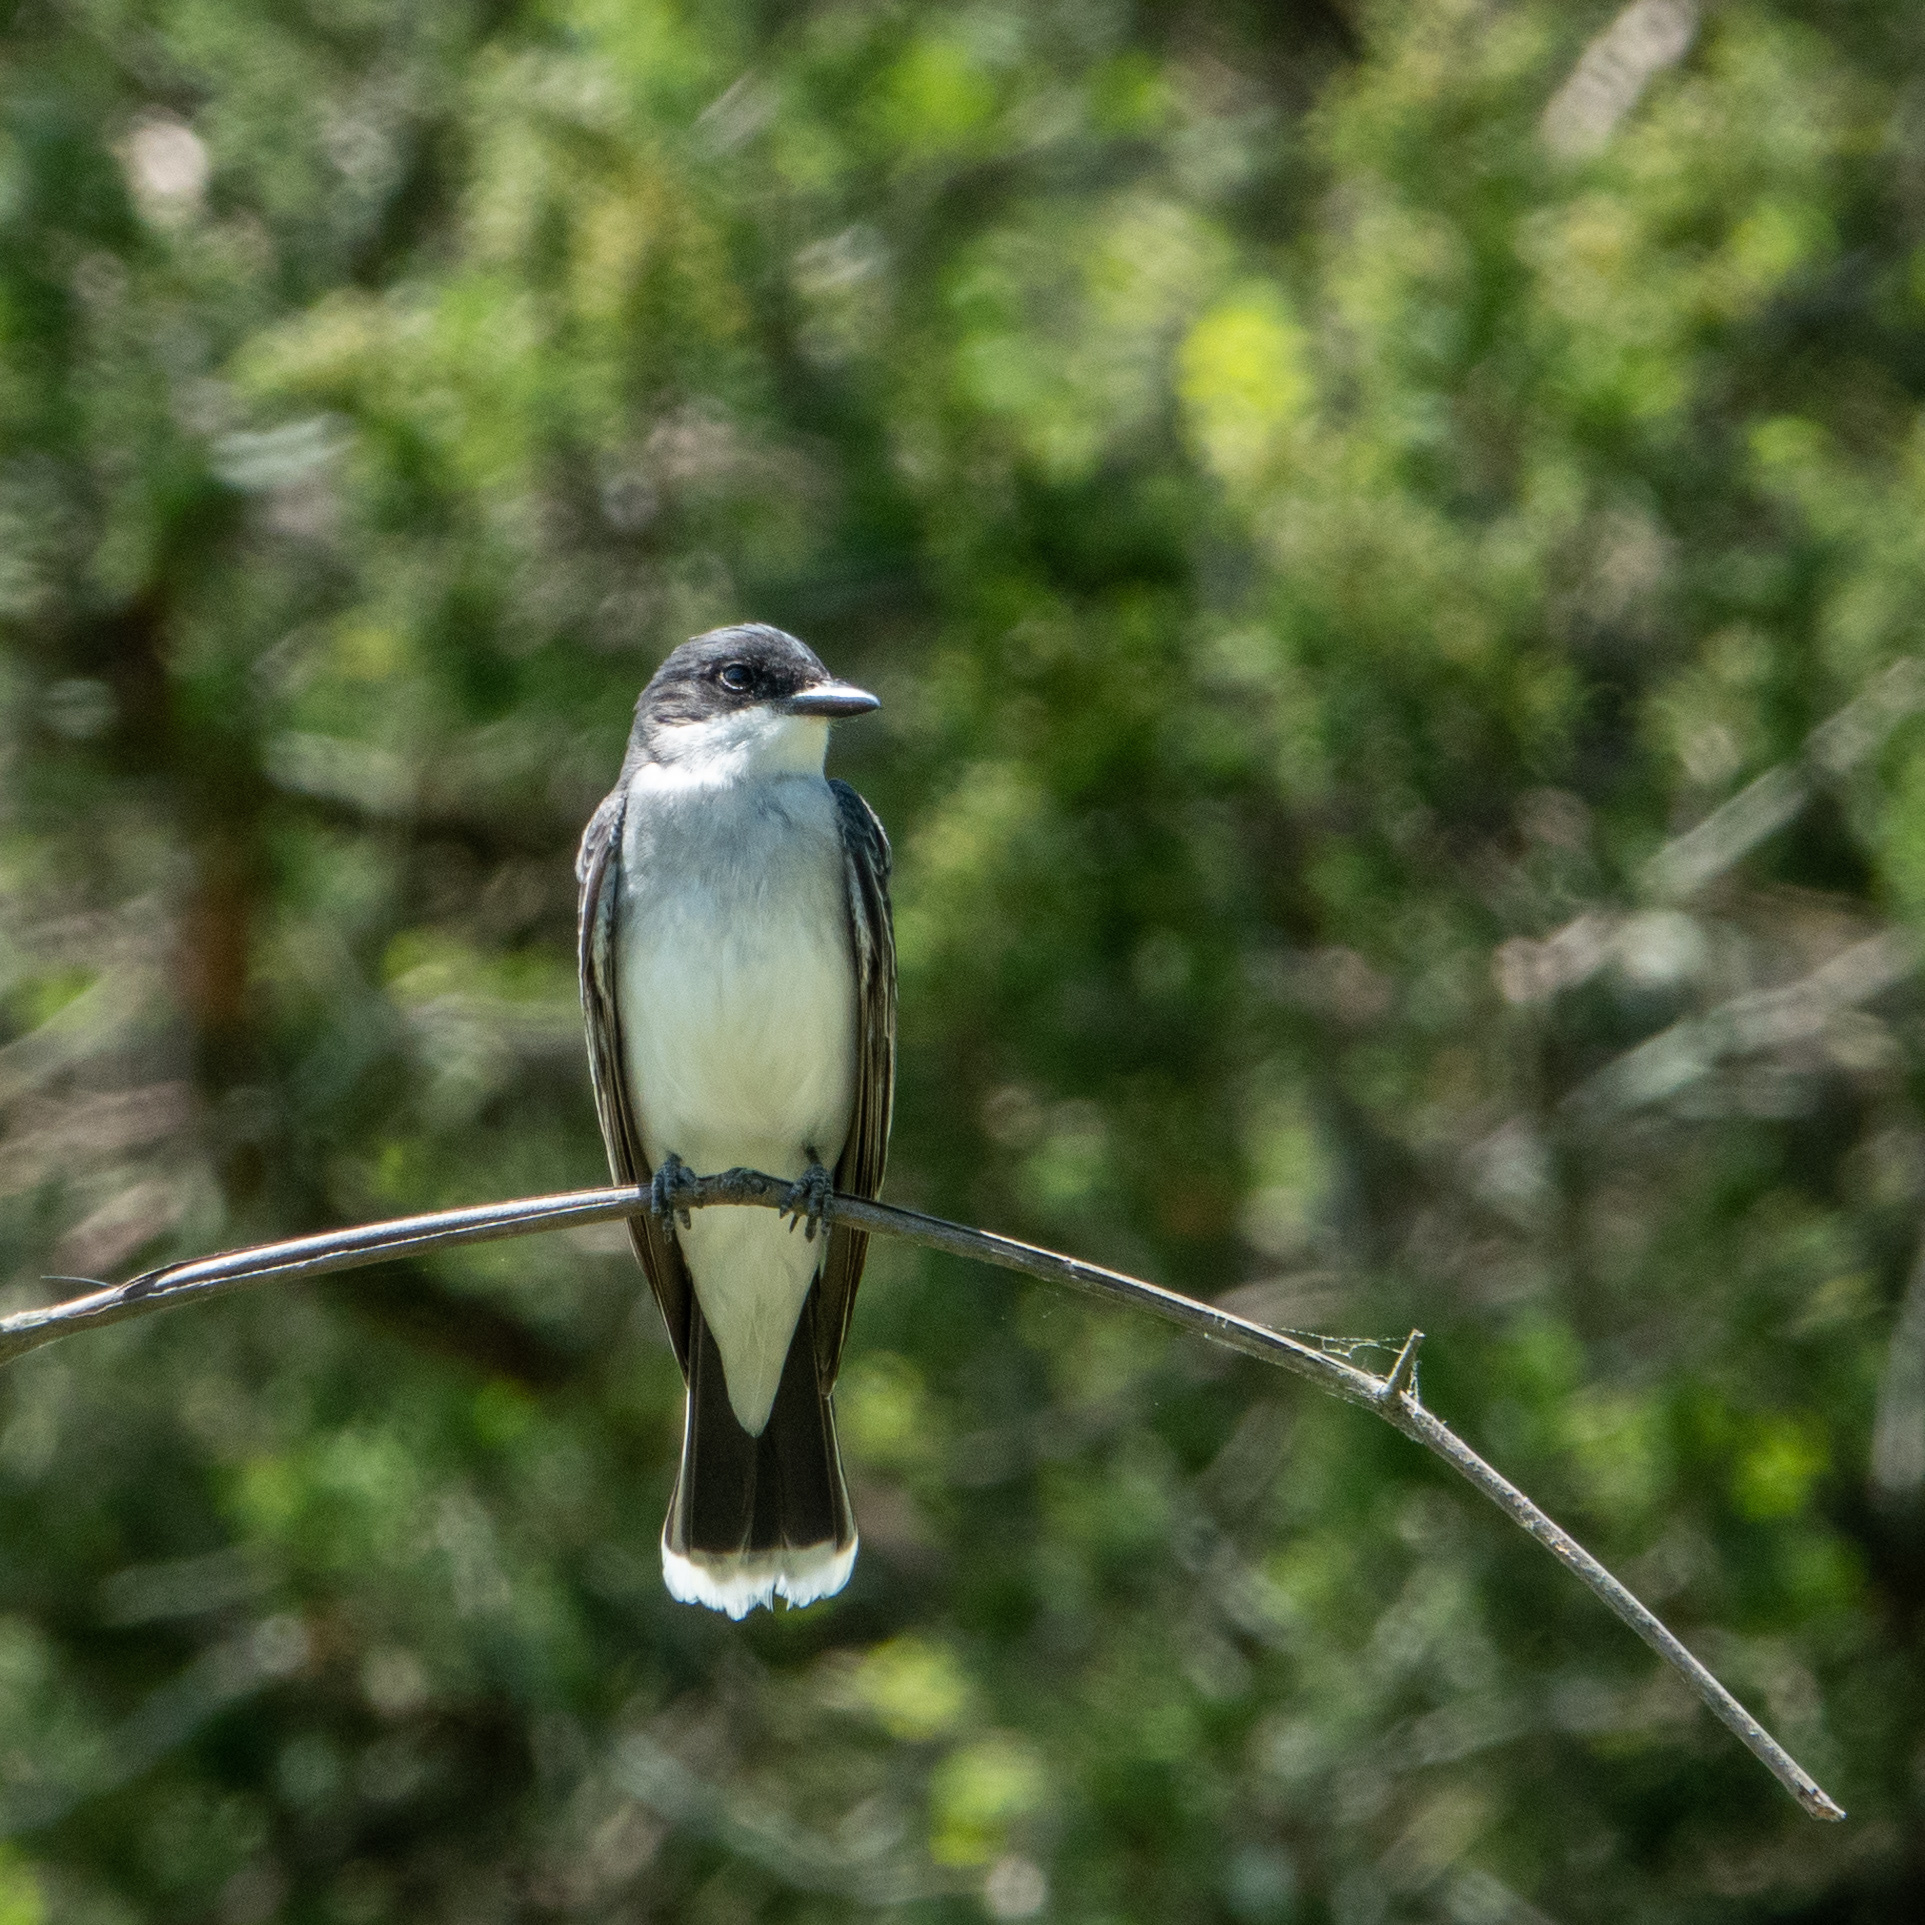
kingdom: Animalia
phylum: Chordata
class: Aves
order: Passeriformes
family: Tyrannidae
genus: Tyrannus
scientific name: Tyrannus tyrannus
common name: Eastern kingbird
